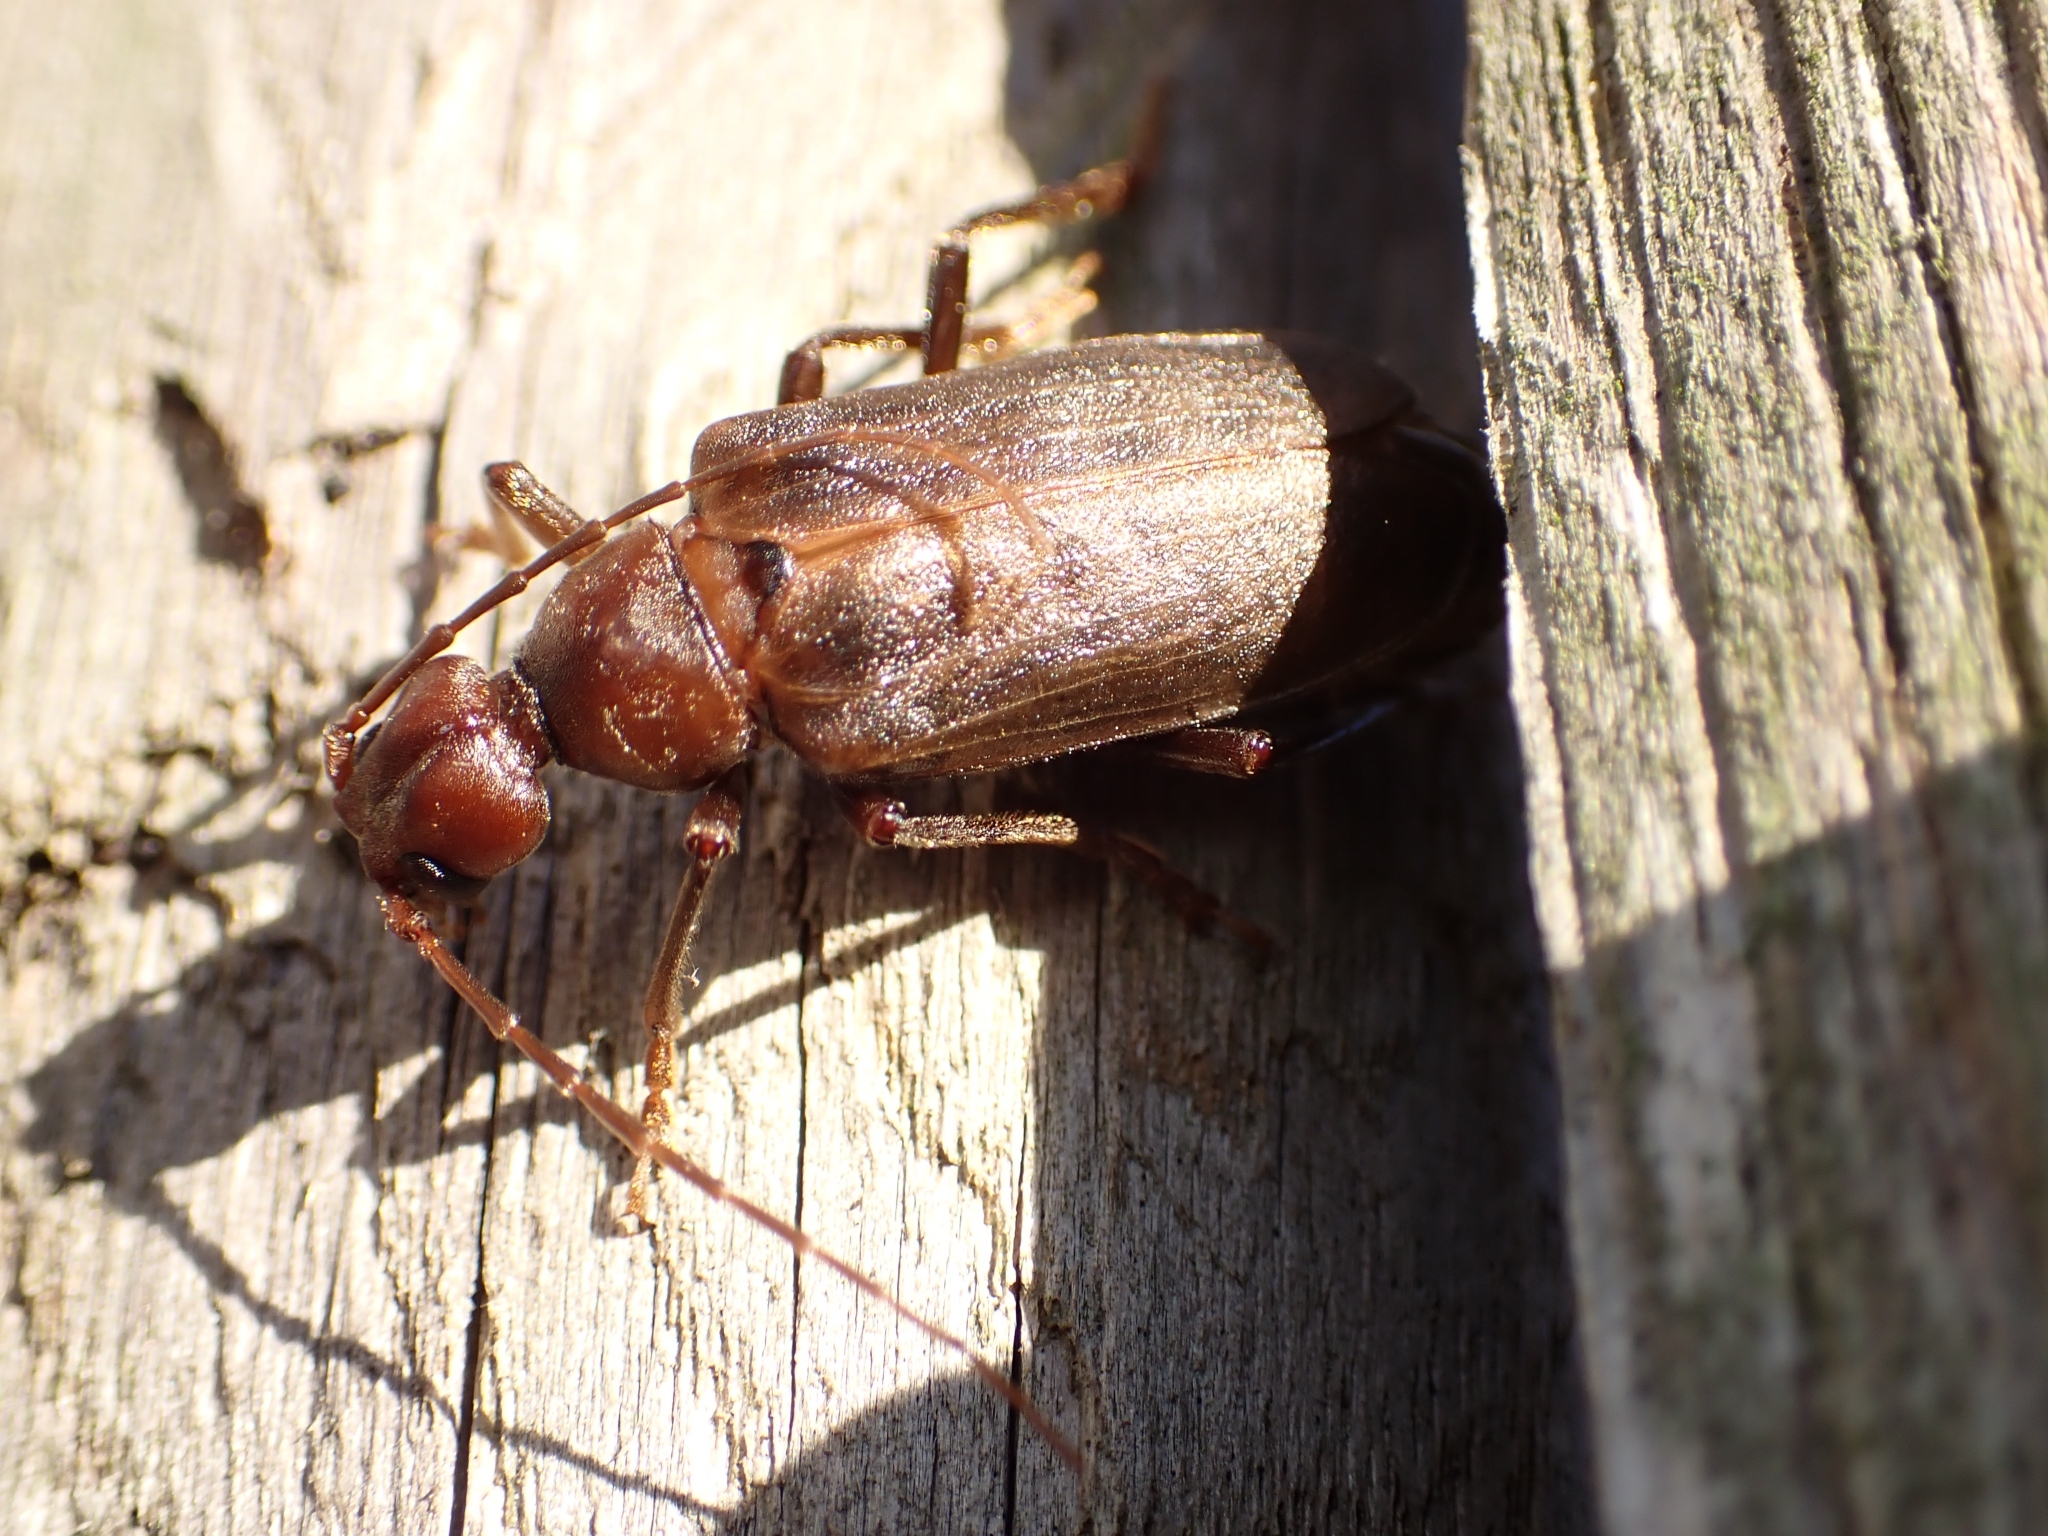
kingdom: Animalia
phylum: Arthropoda
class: Insecta
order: Coleoptera
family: Cerambycidae
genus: Vesperus
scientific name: Vesperus strepens
